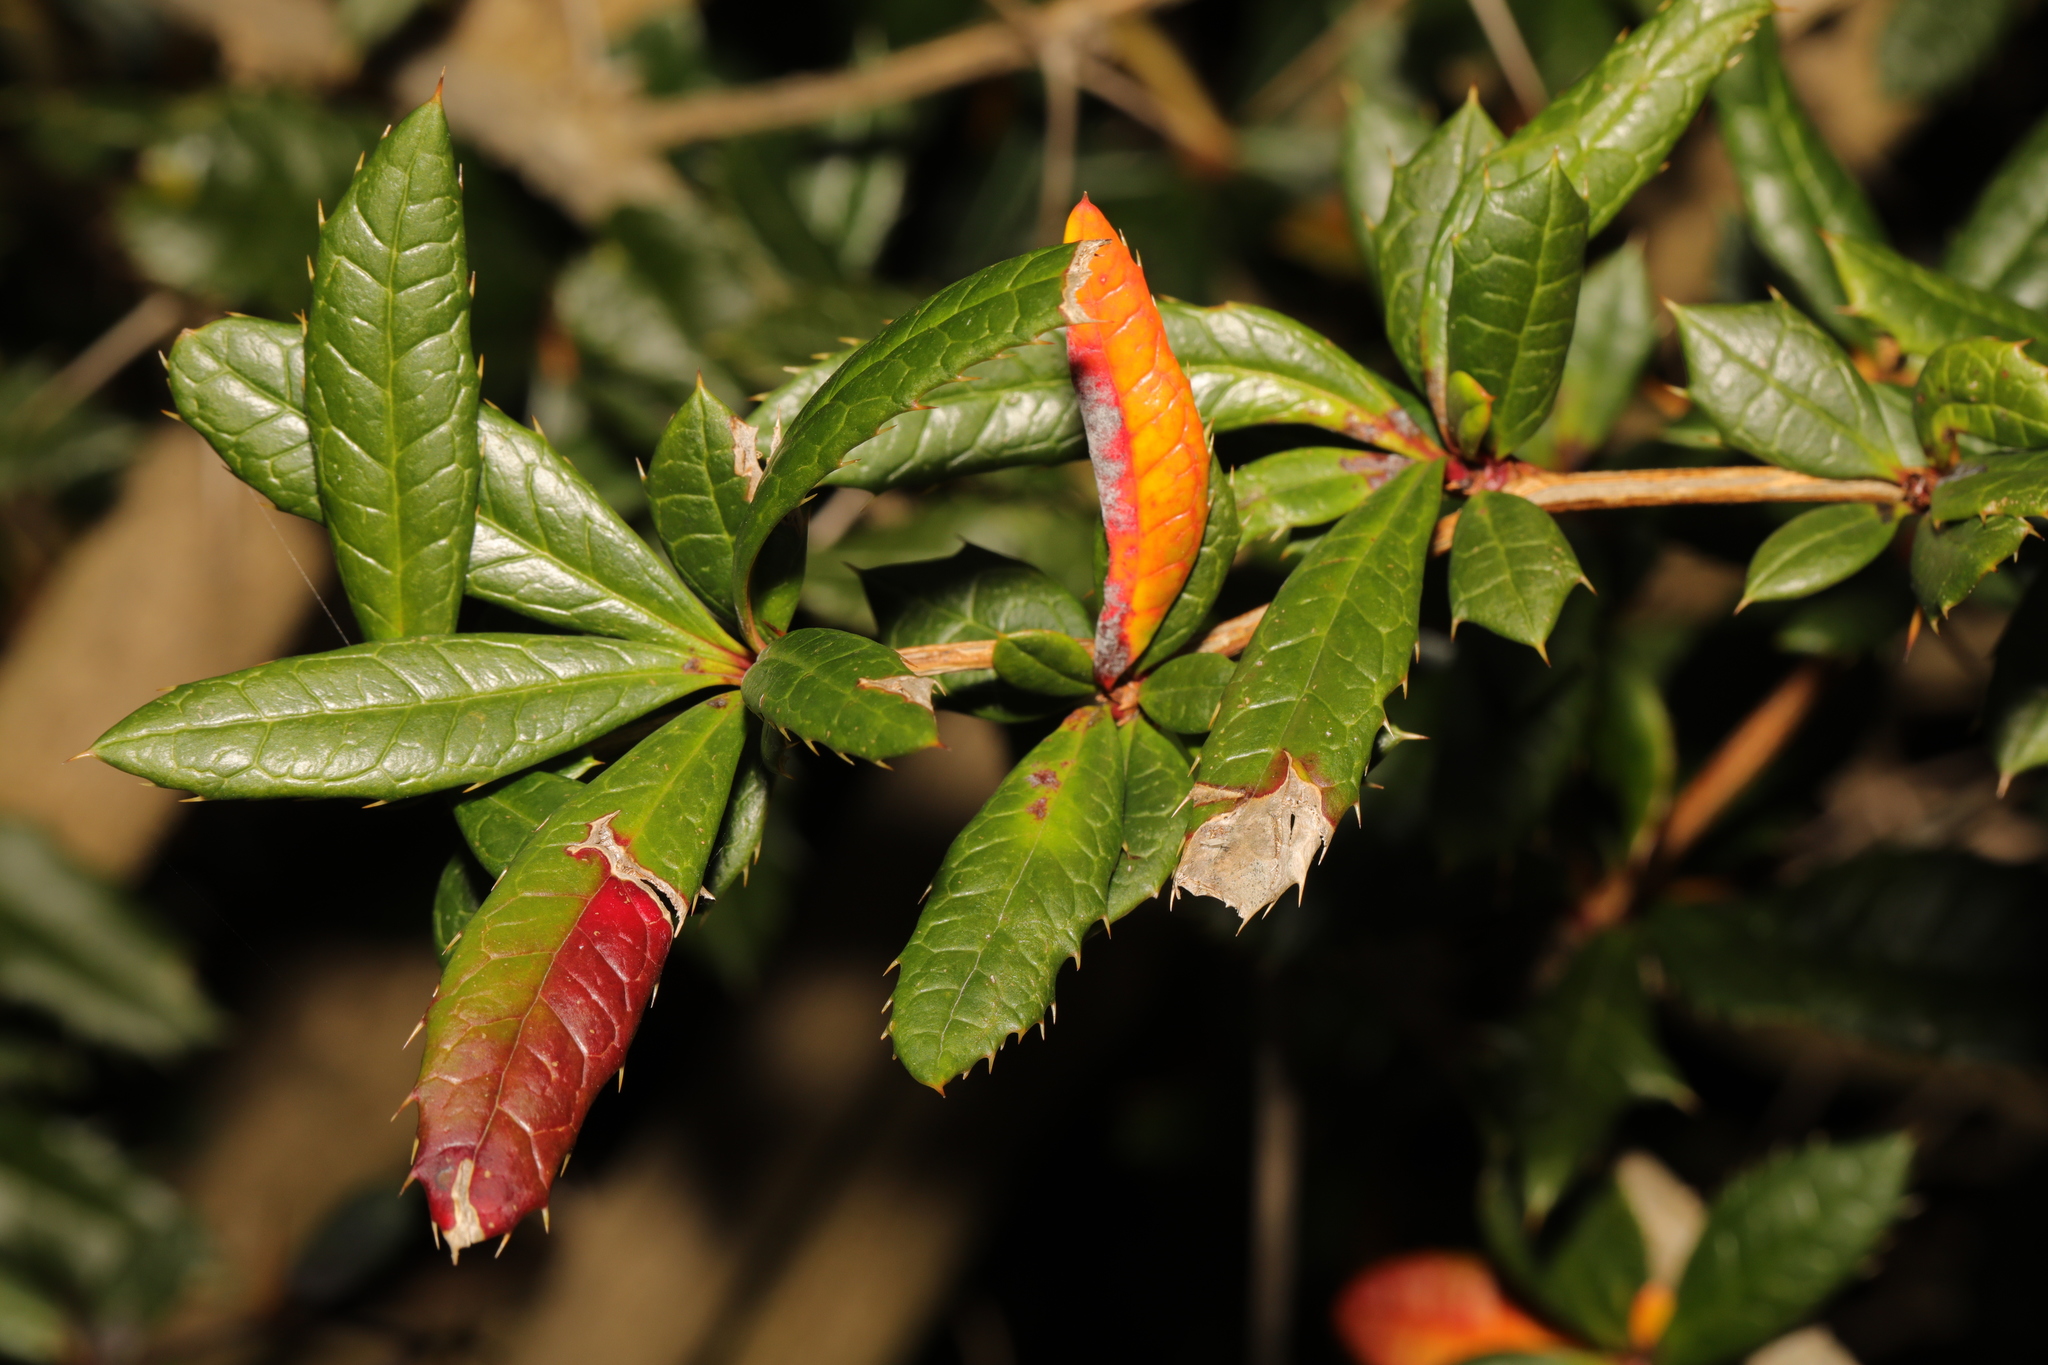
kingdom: Plantae
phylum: Tracheophyta
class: Magnoliopsida
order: Ranunculales
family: Berberidaceae
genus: Berberis
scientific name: Berberis candidula
